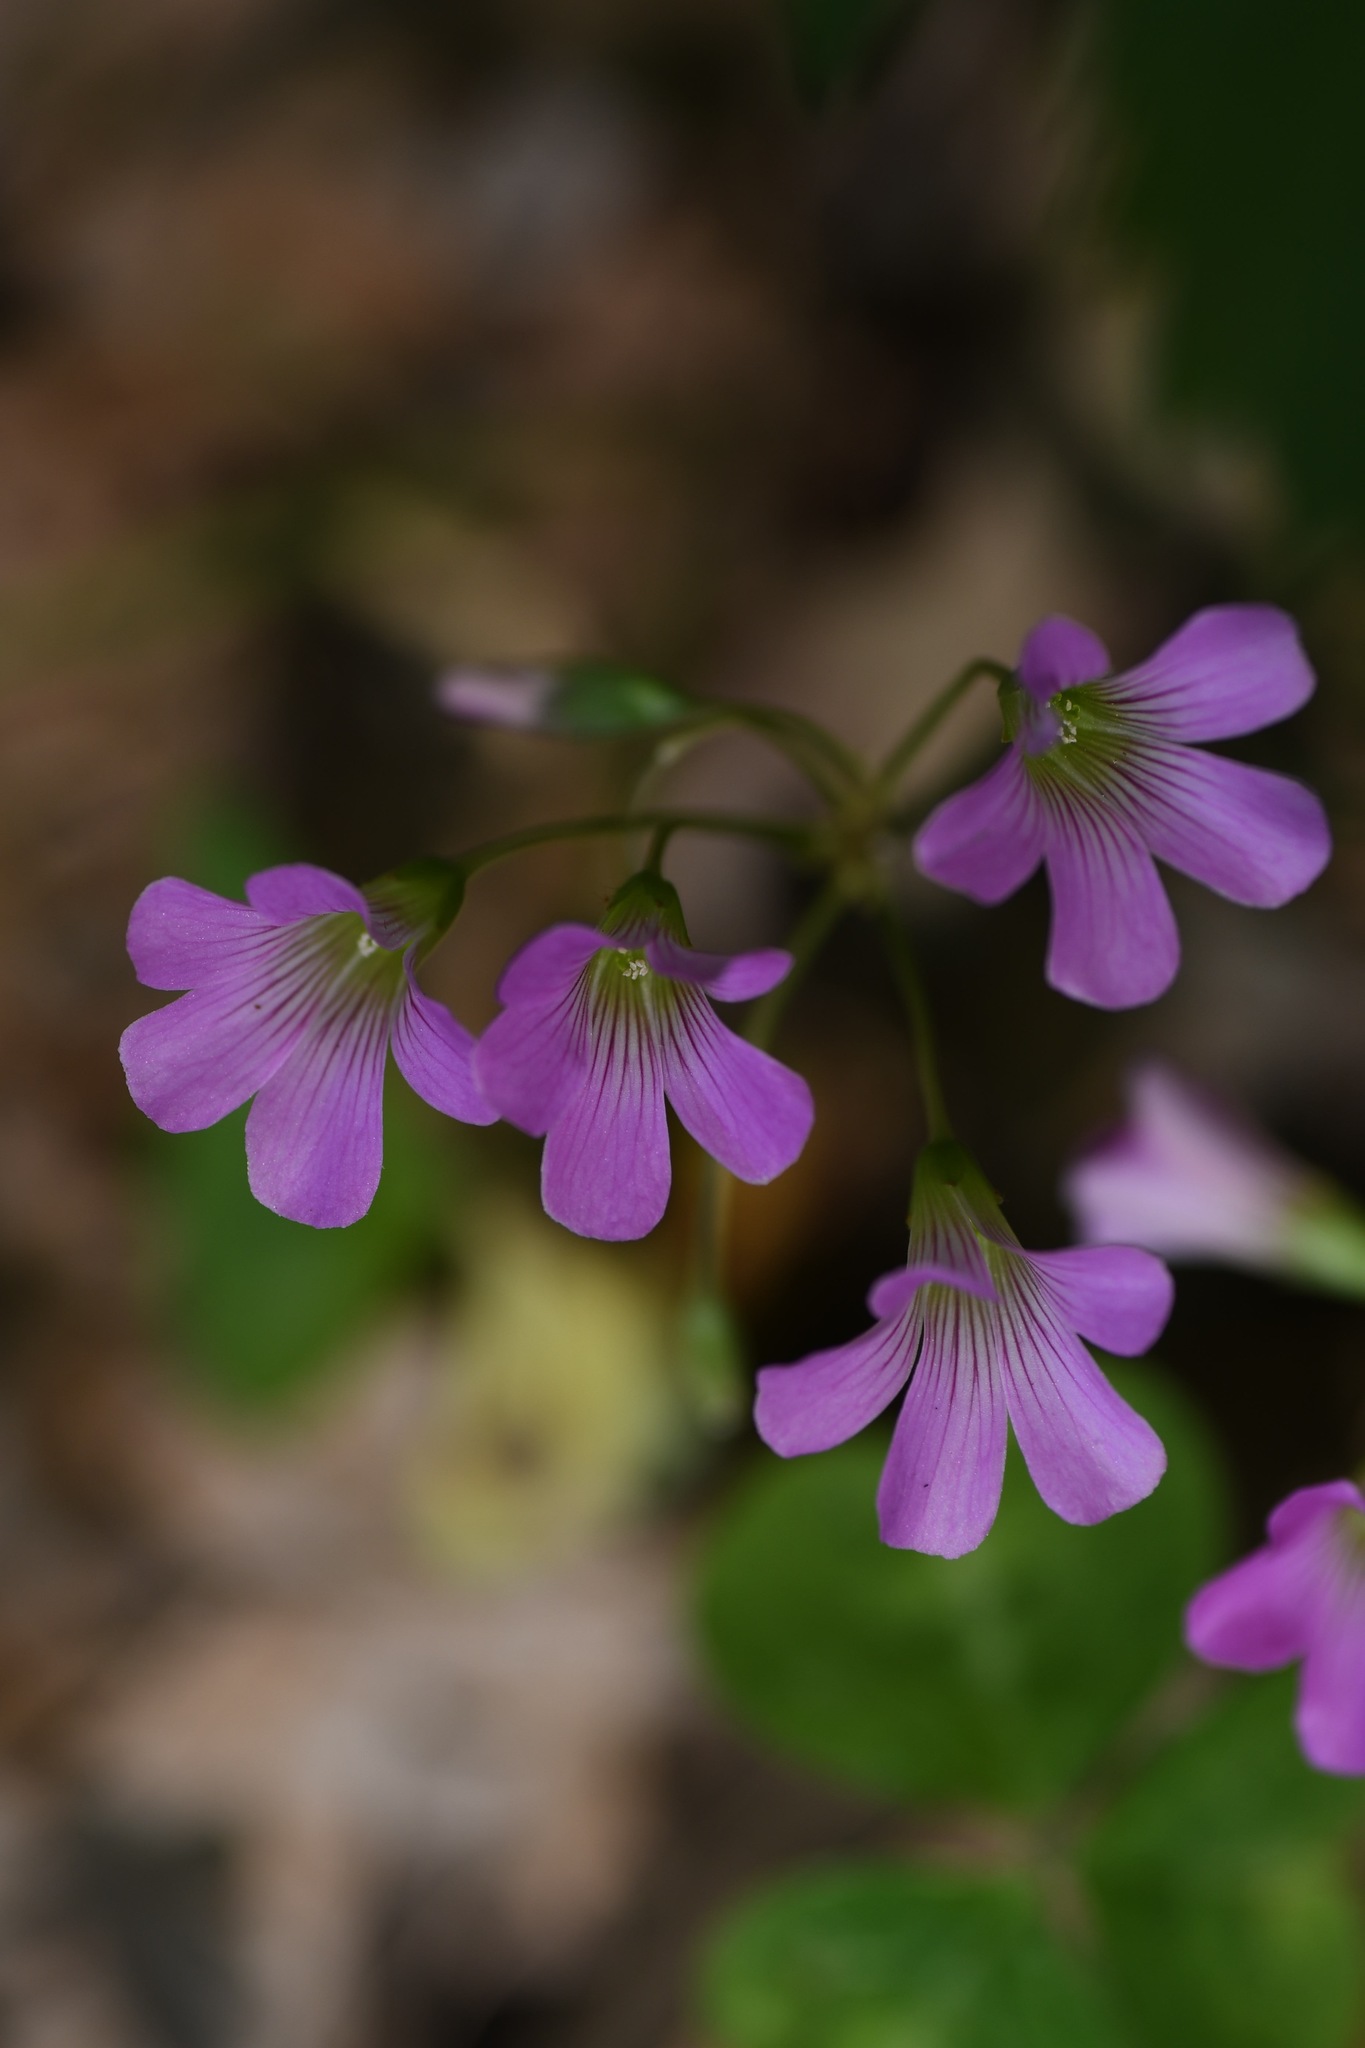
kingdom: Plantae
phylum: Tracheophyta
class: Magnoliopsida
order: Oxalidales
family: Oxalidaceae
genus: Oxalis
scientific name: Oxalis debilis
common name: Large-flowered pink-sorrel
